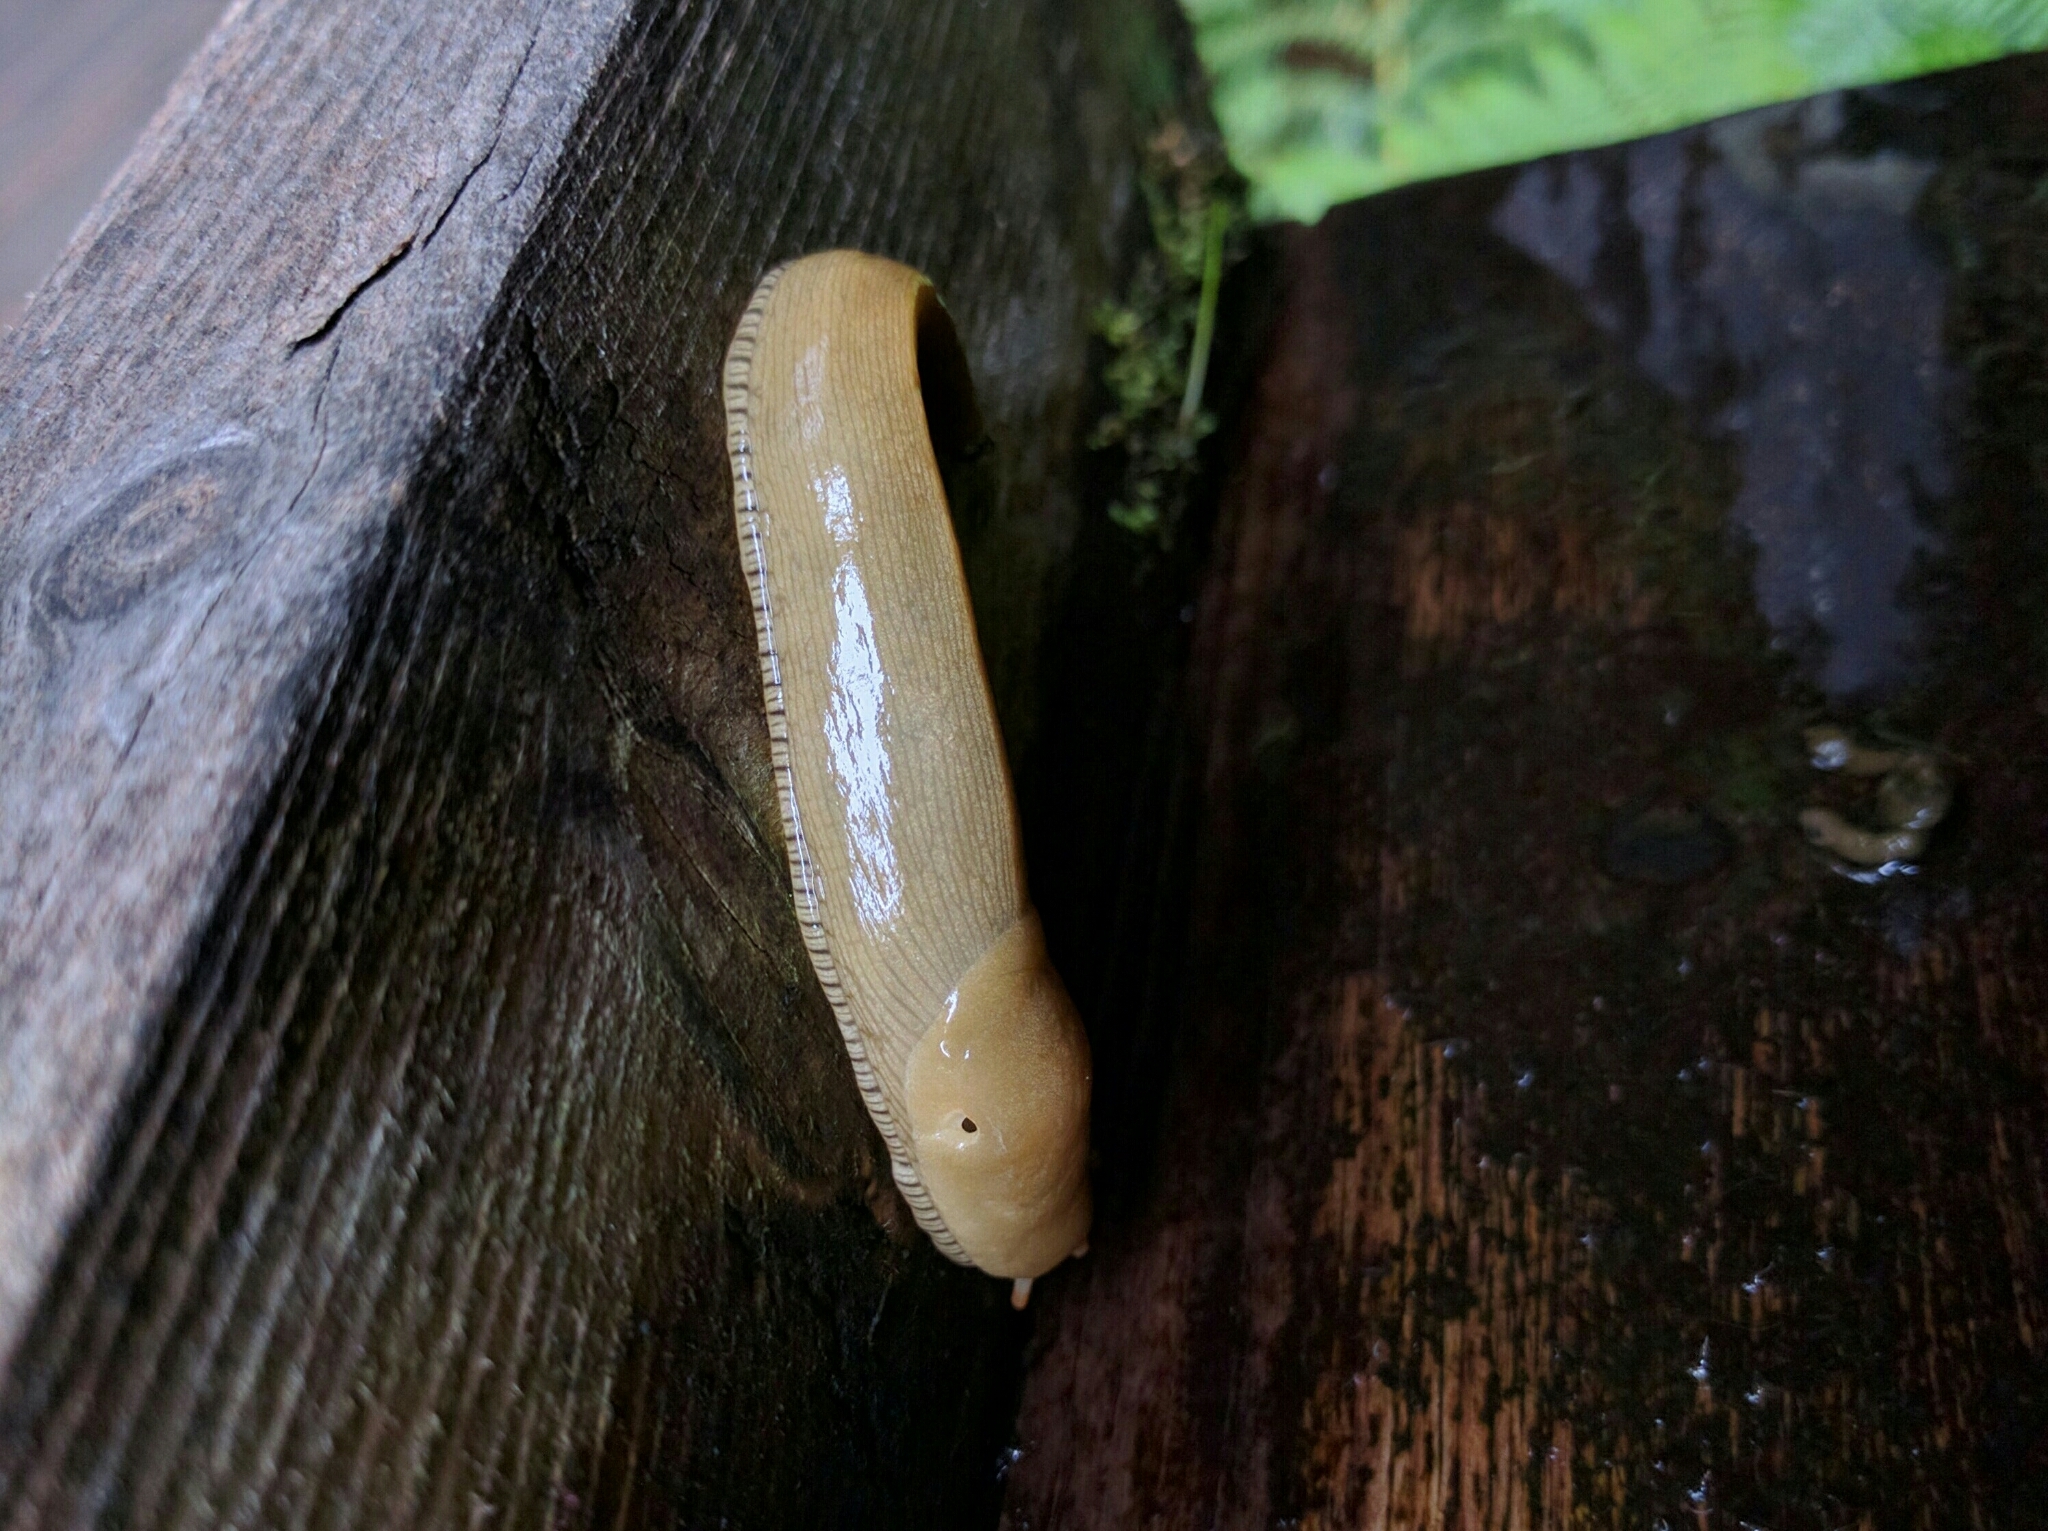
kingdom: Animalia
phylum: Mollusca
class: Gastropoda
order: Stylommatophora
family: Ariolimacidae
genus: Ariolimax
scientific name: Ariolimax buttoni
